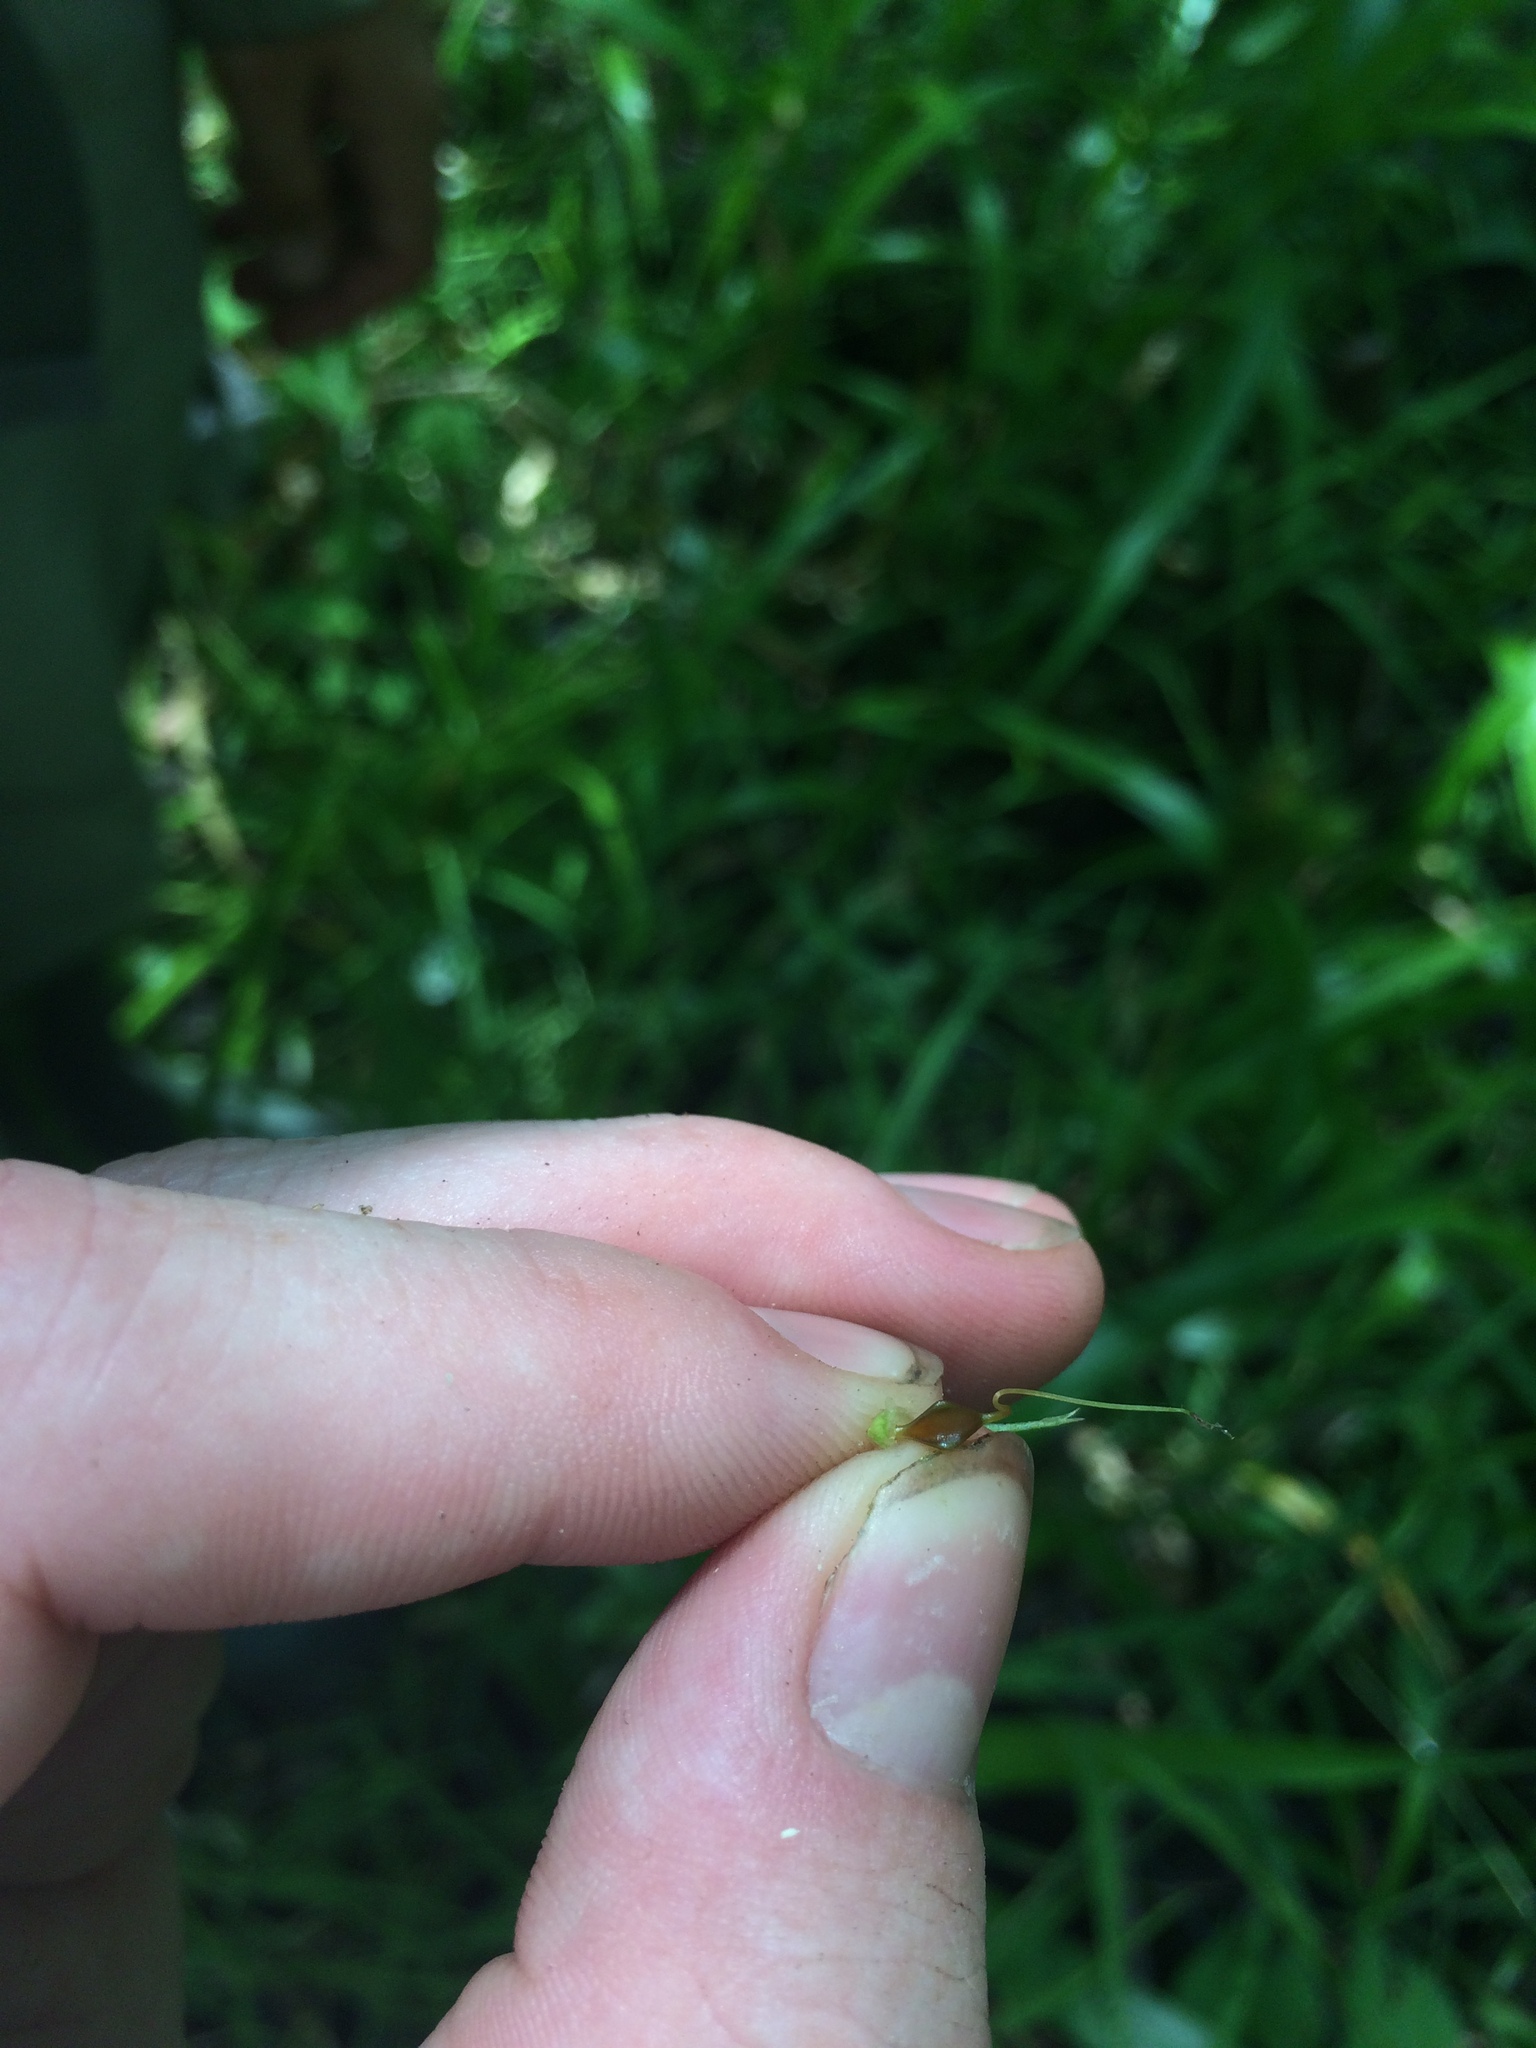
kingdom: Plantae
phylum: Tracheophyta
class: Liliopsida
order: Poales
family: Cyperaceae
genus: Carex
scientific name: Carex lupulina
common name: Hop sedge
